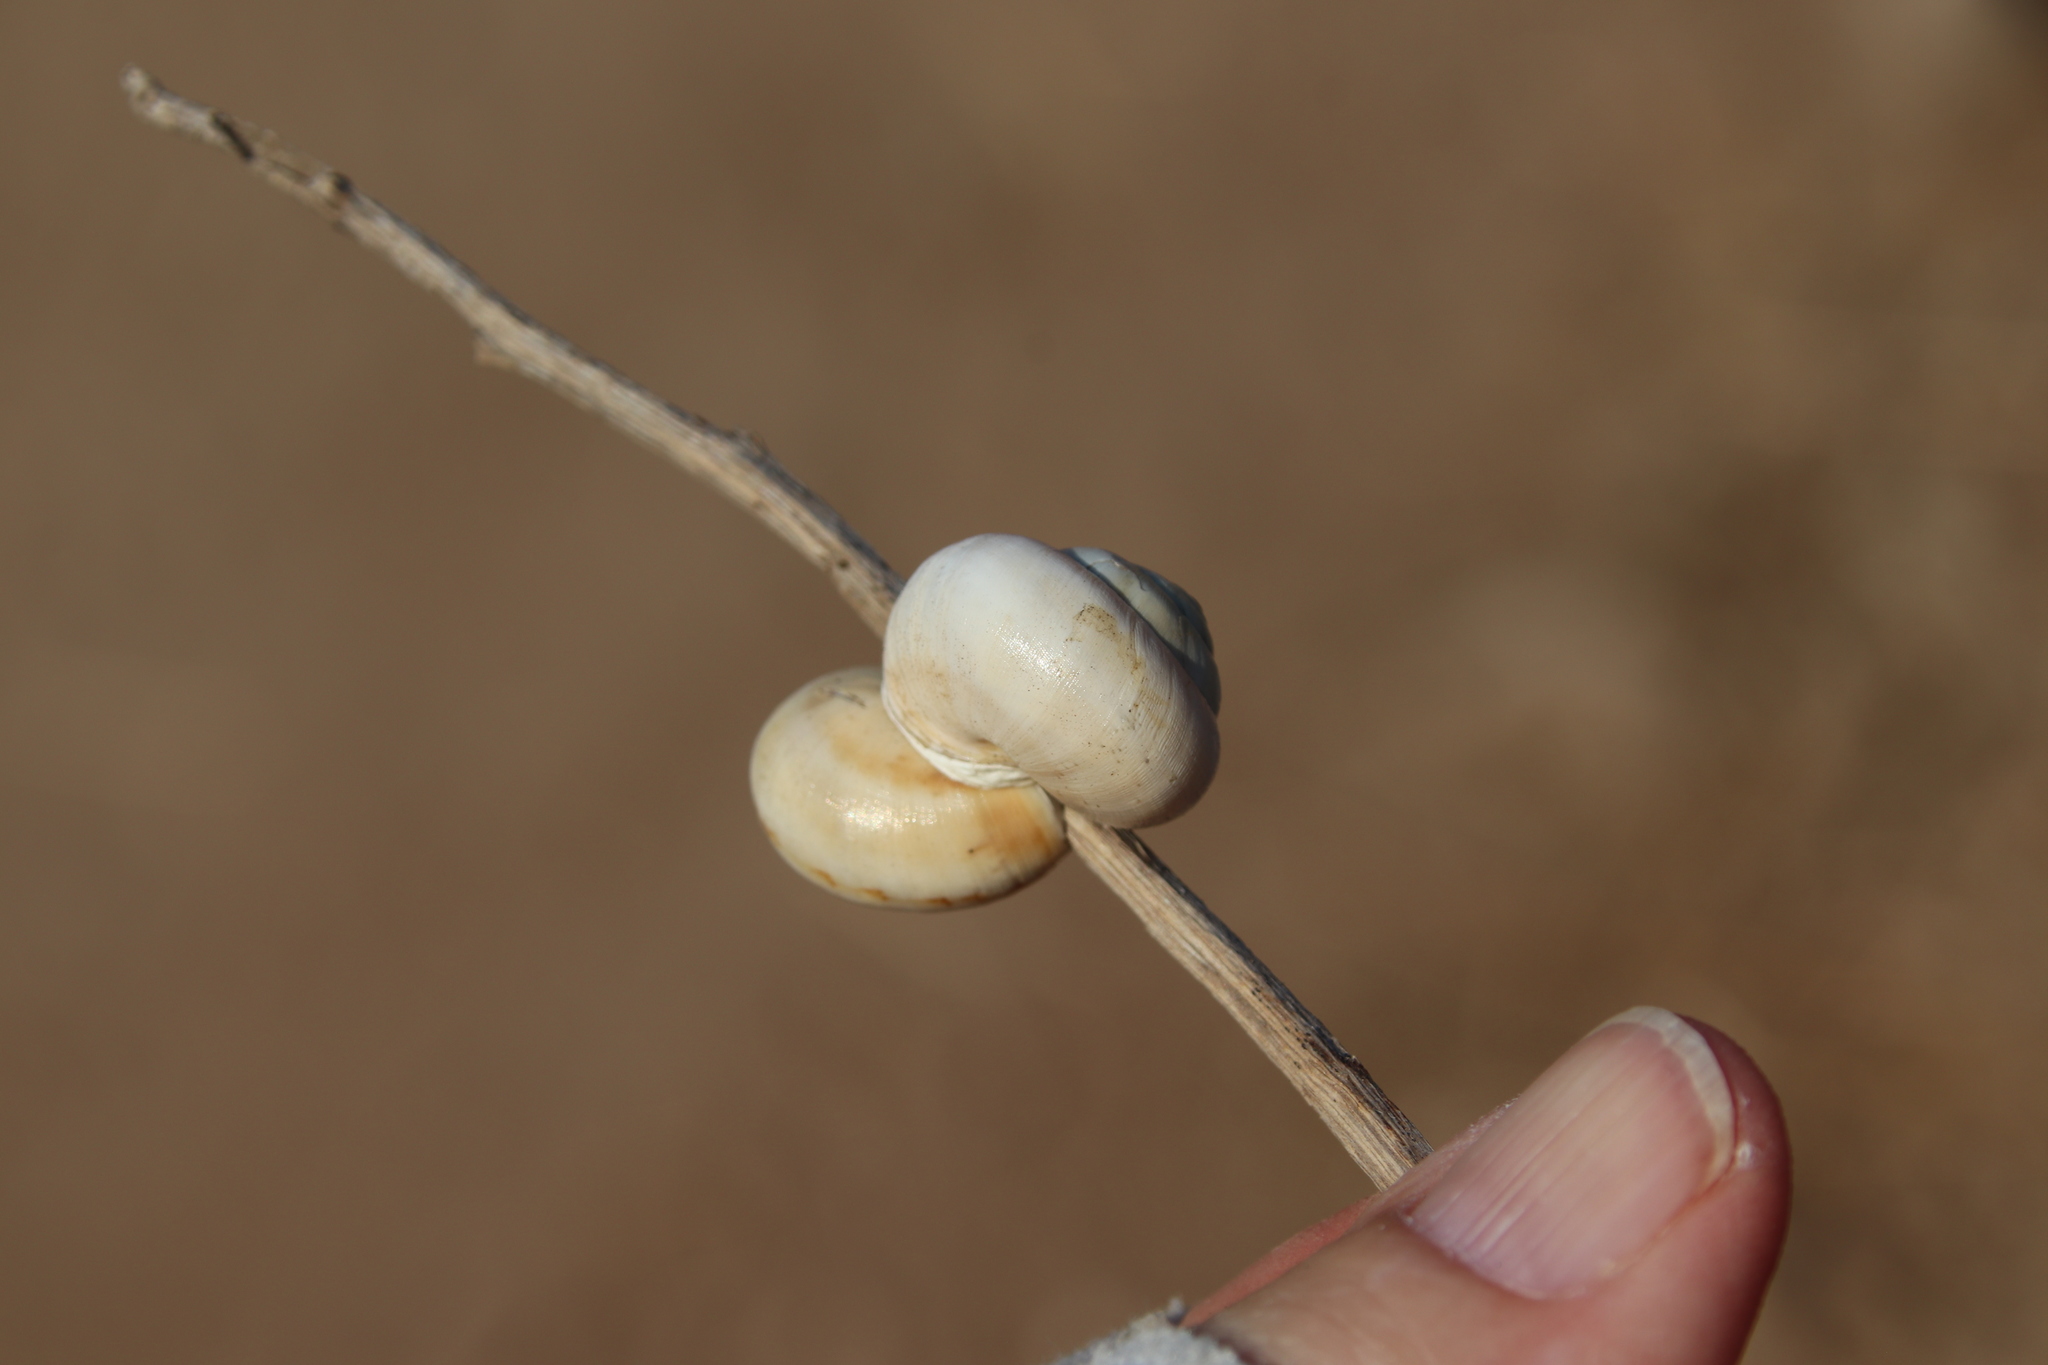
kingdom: Animalia
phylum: Mollusca
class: Gastropoda
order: Stylommatophora
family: Helicidae
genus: Theba
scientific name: Theba pisana
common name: White snail
